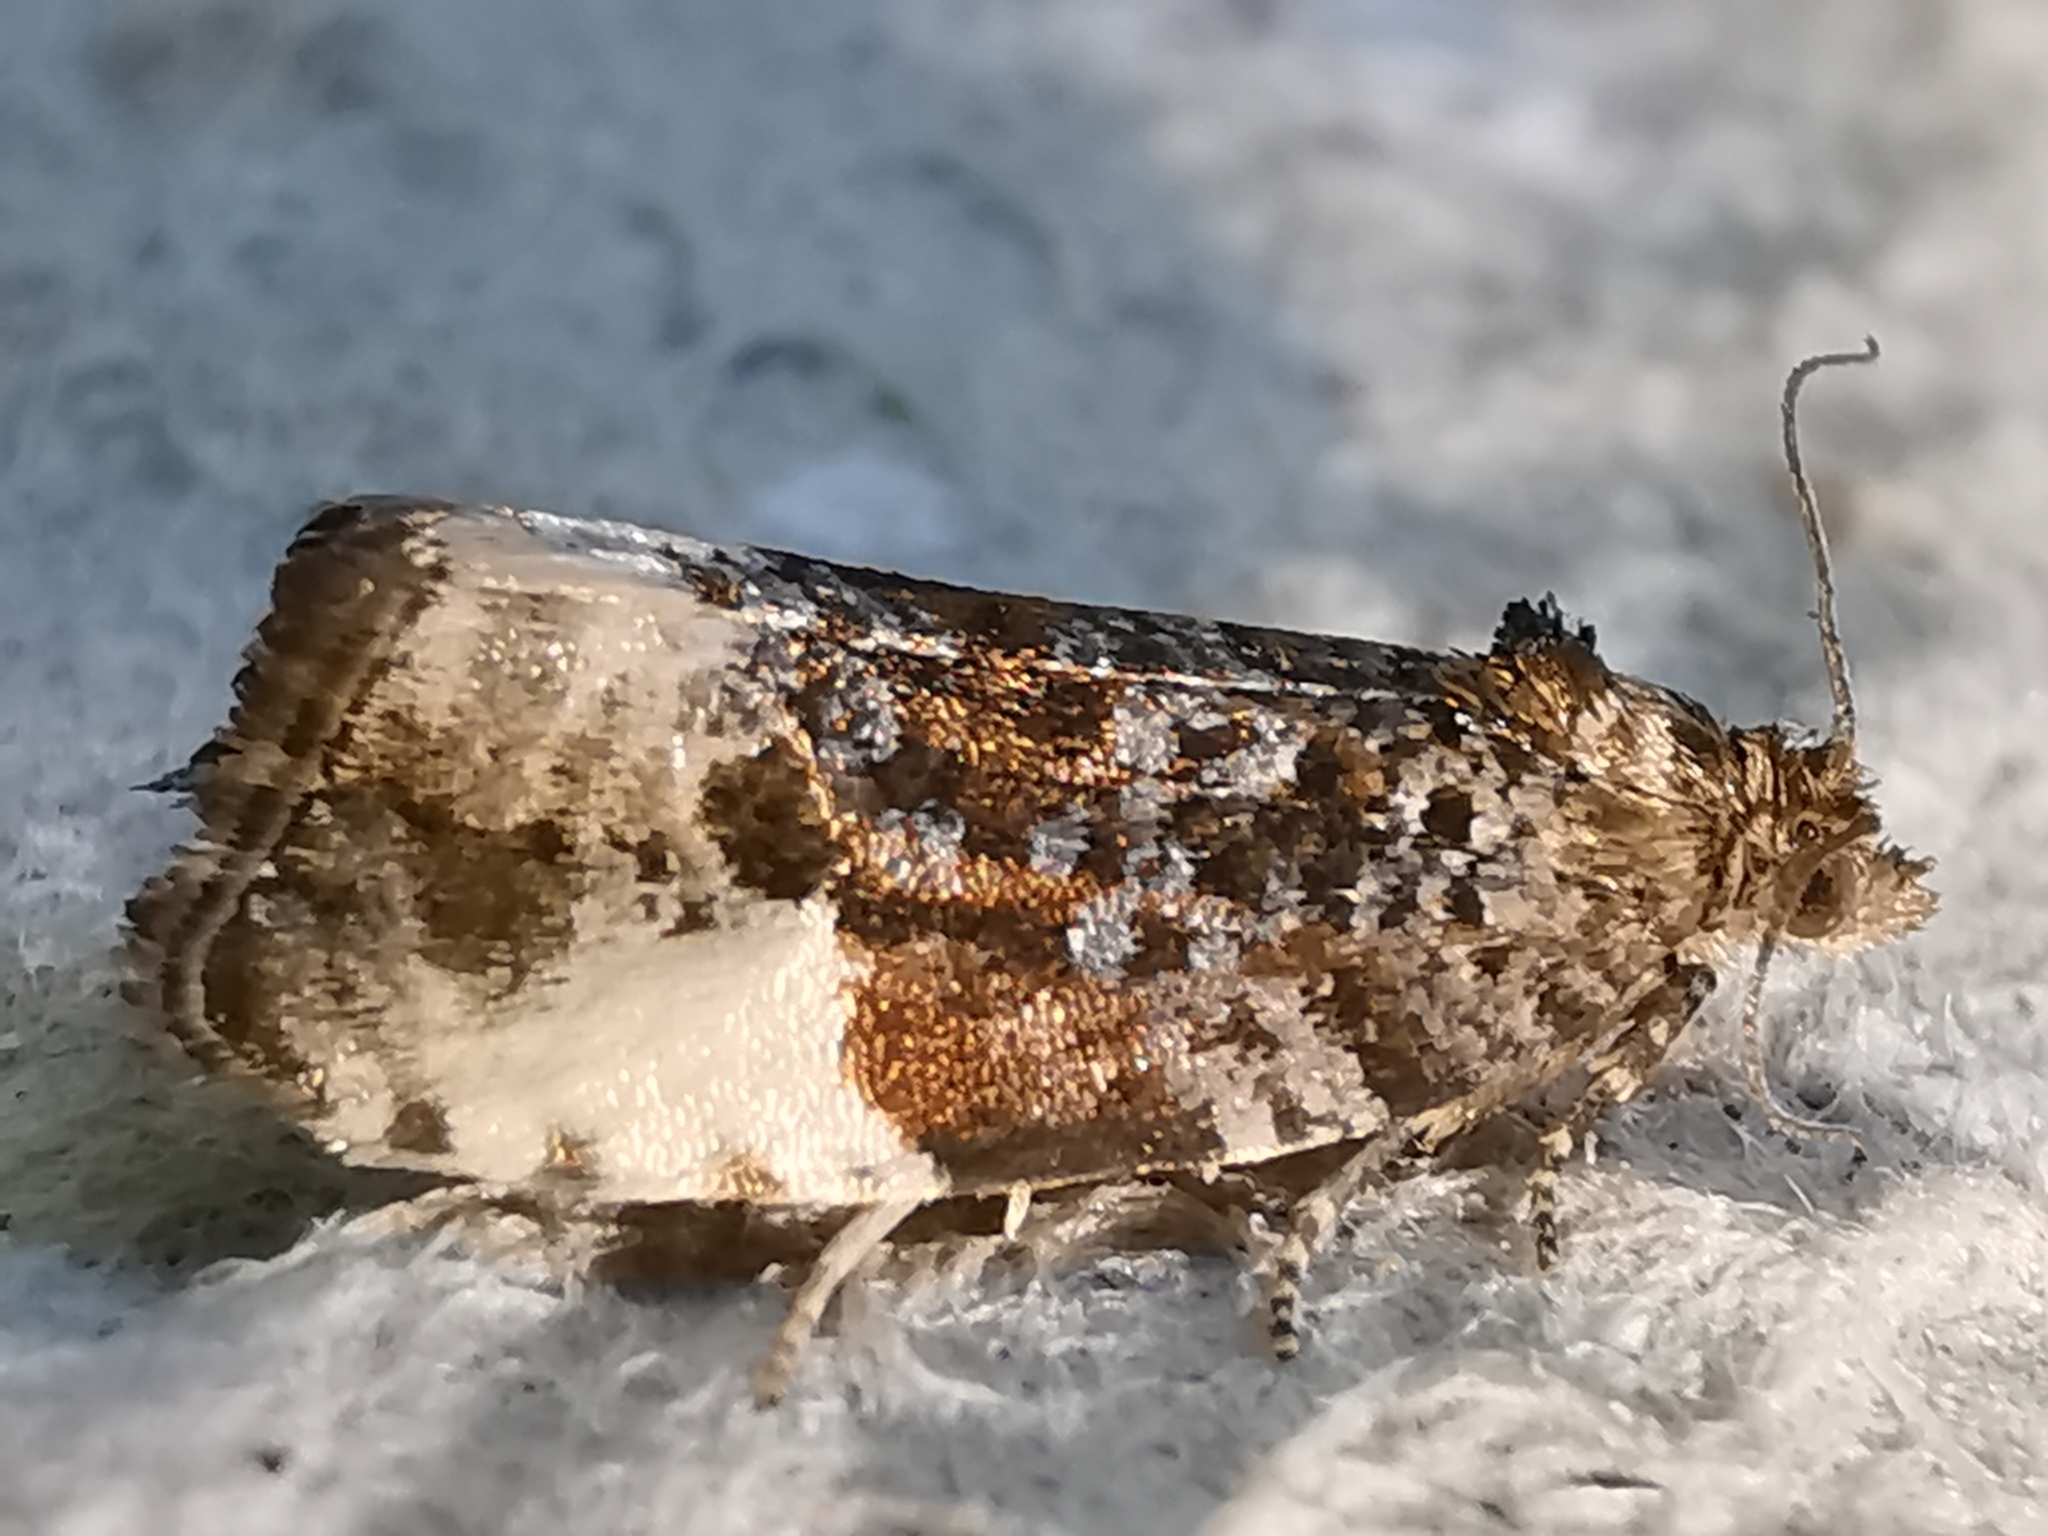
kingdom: Animalia
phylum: Arthropoda
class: Insecta
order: Lepidoptera
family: Tortricidae
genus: Hedya
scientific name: Hedya pruniana
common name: Plum tortrix
